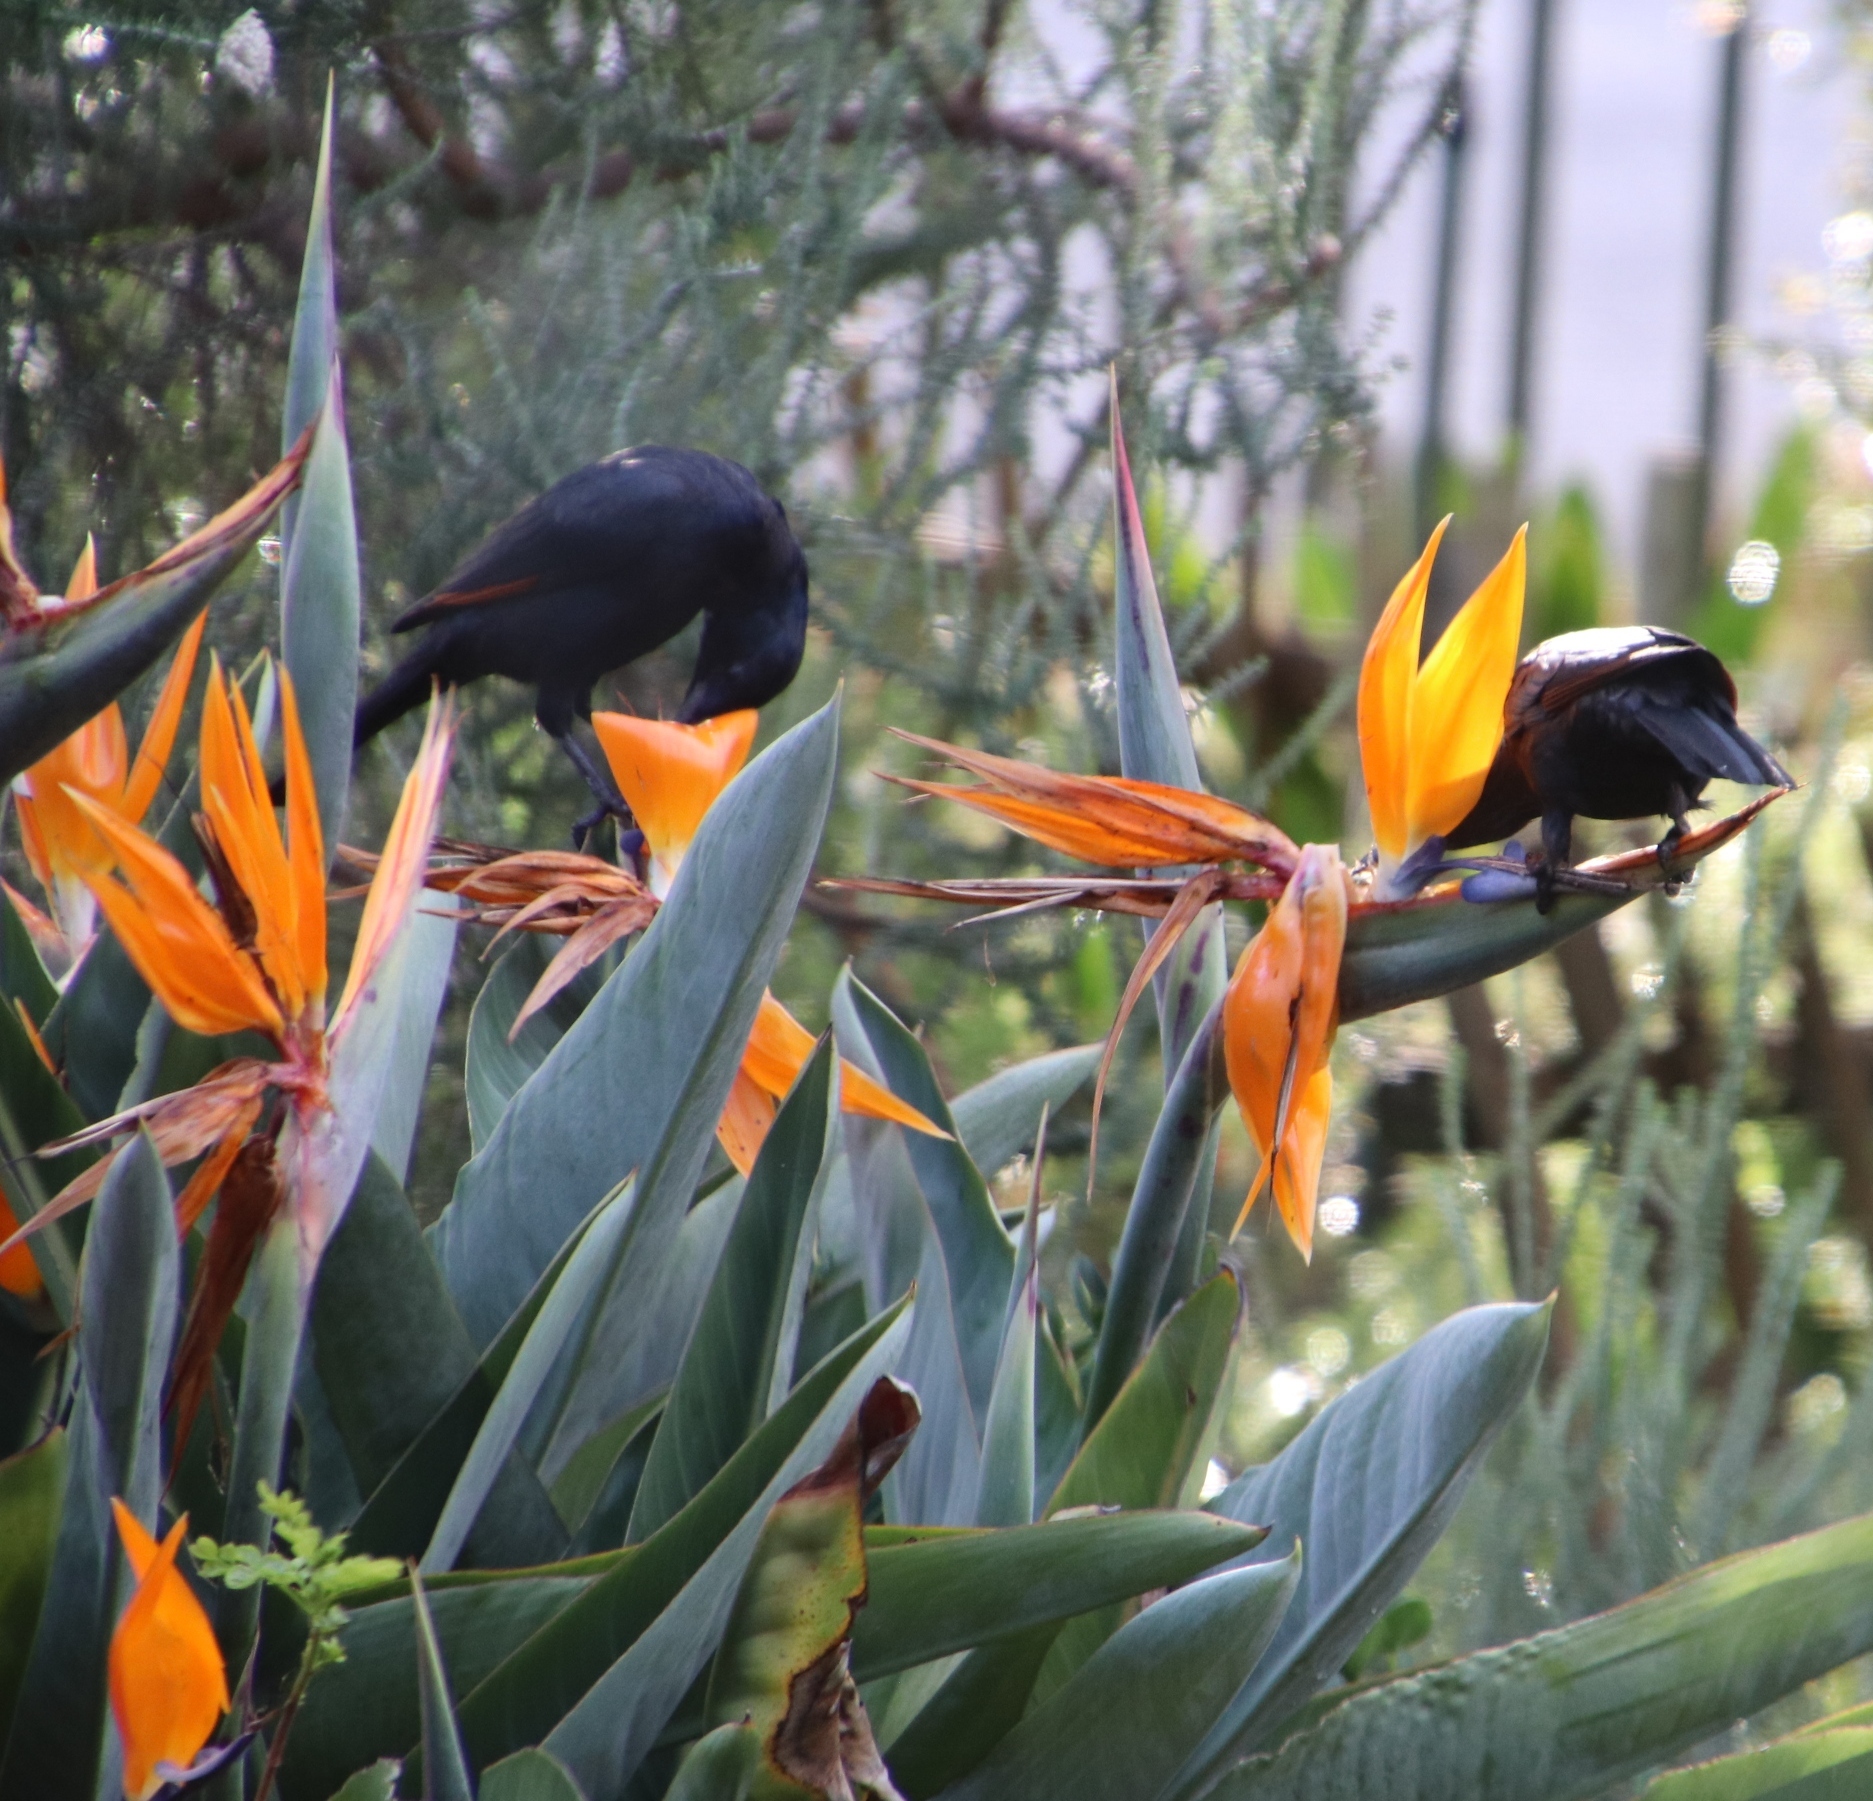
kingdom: Animalia
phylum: Chordata
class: Aves
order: Passeriformes
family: Sturnidae
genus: Onychognathus
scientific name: Onychognathus morio
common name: Red-winged starling
